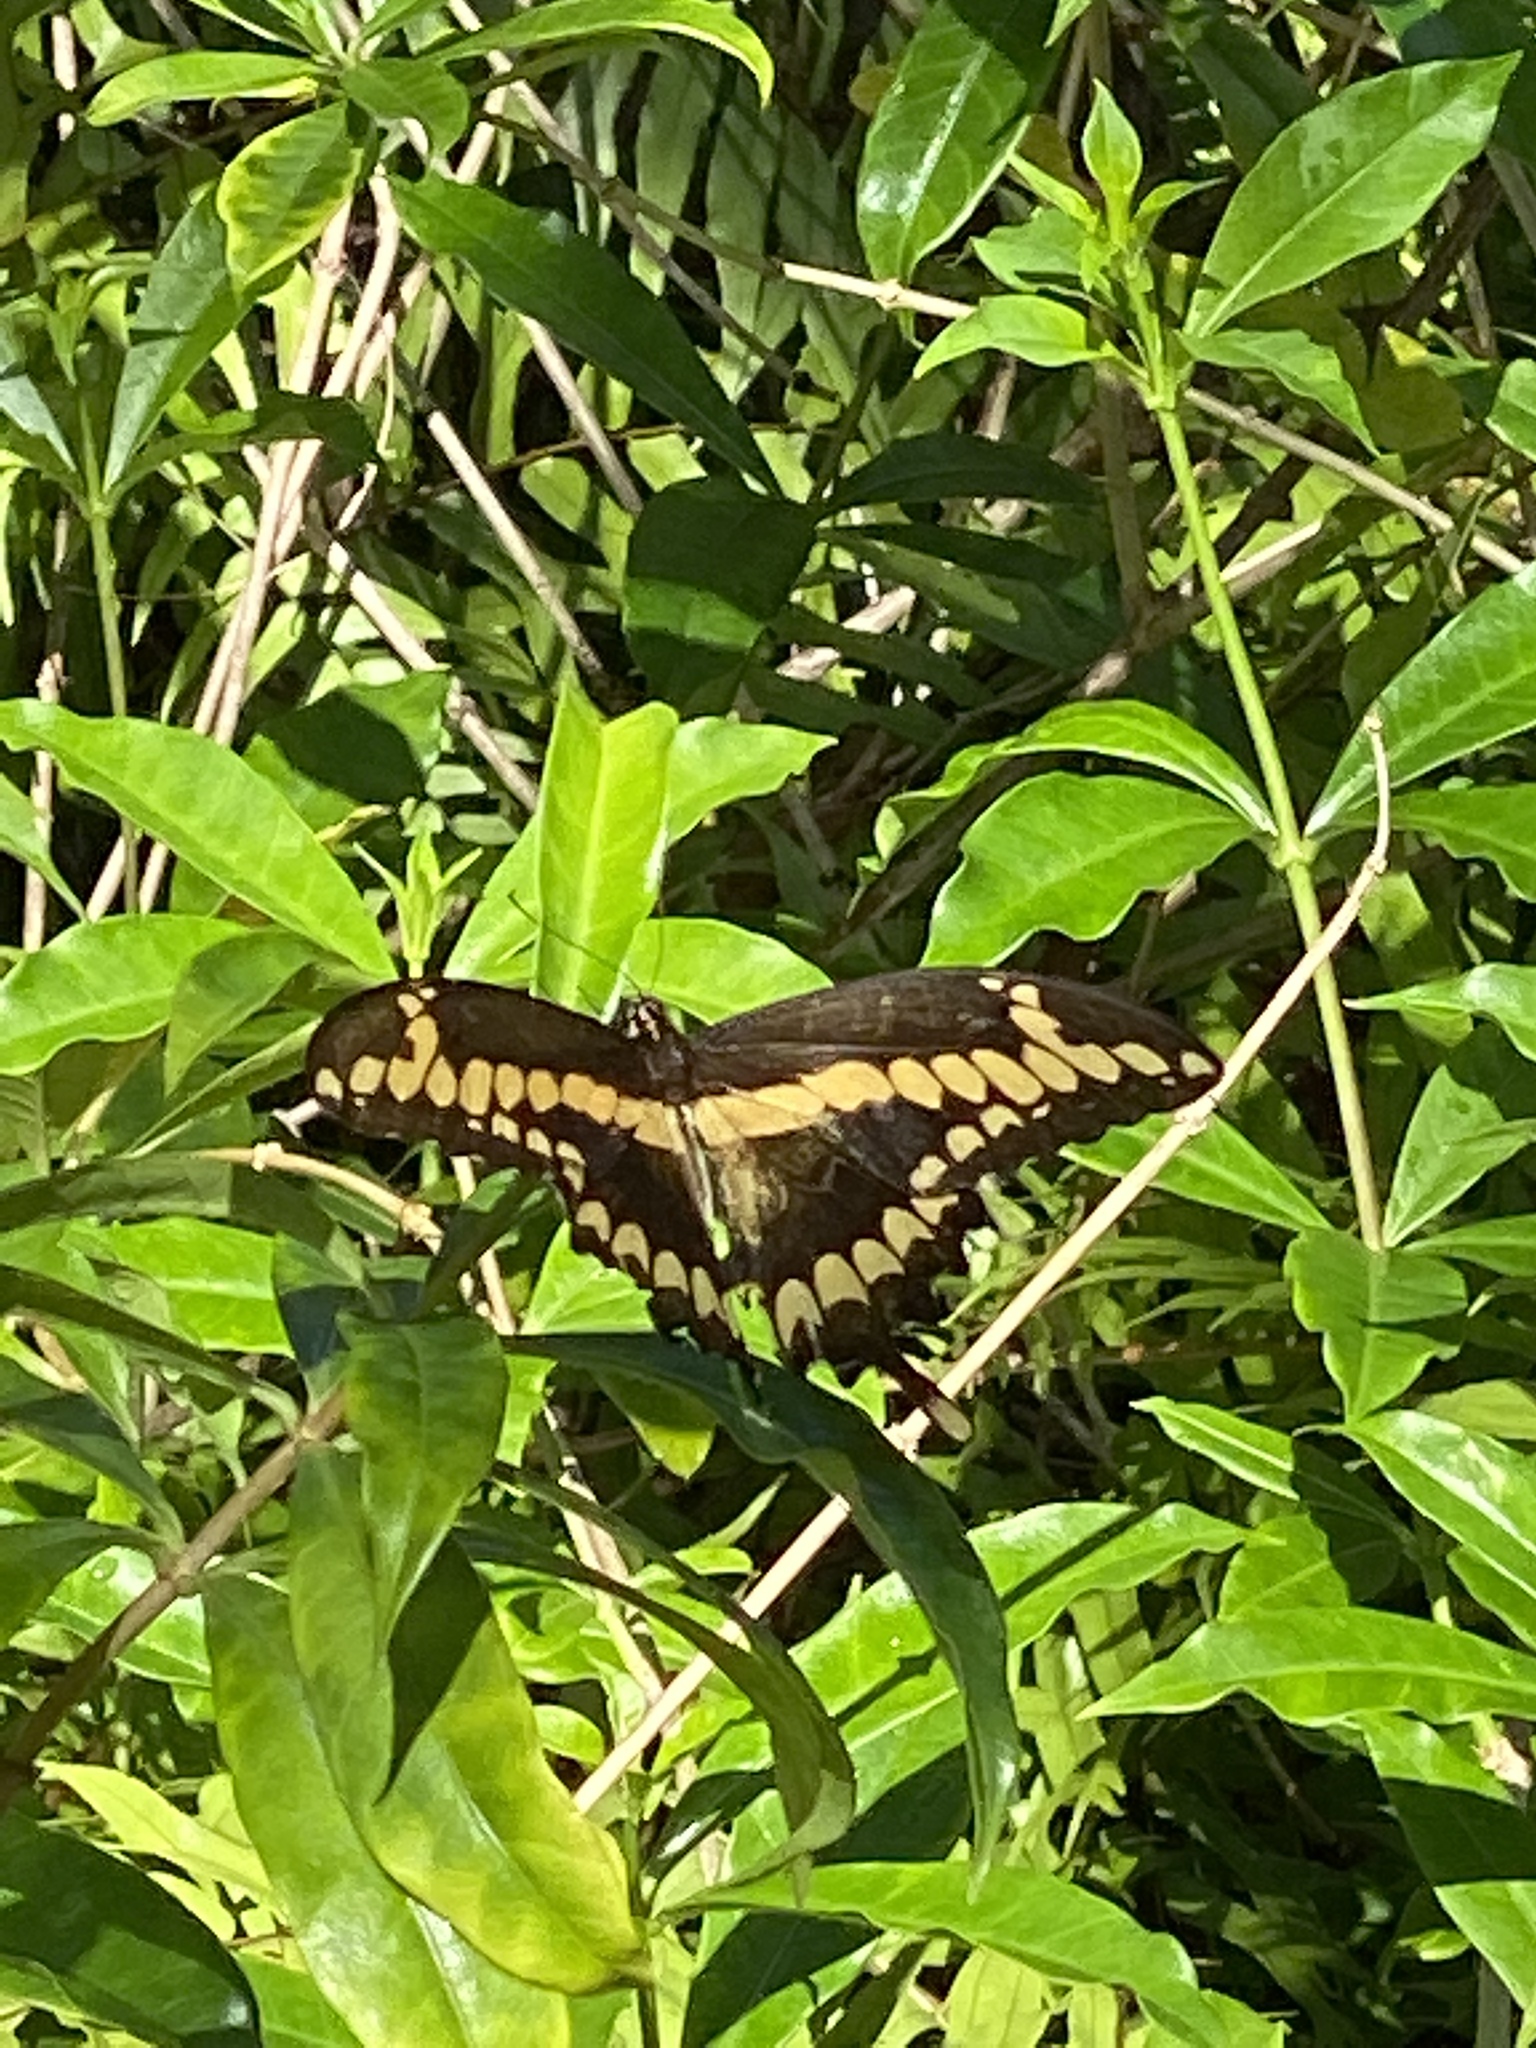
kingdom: Animalia
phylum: Arthropoda
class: Insecta
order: Lepidoptera
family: Papilionidae
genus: Papilio
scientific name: Papilio cresphontes
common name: Giant swallowtail
